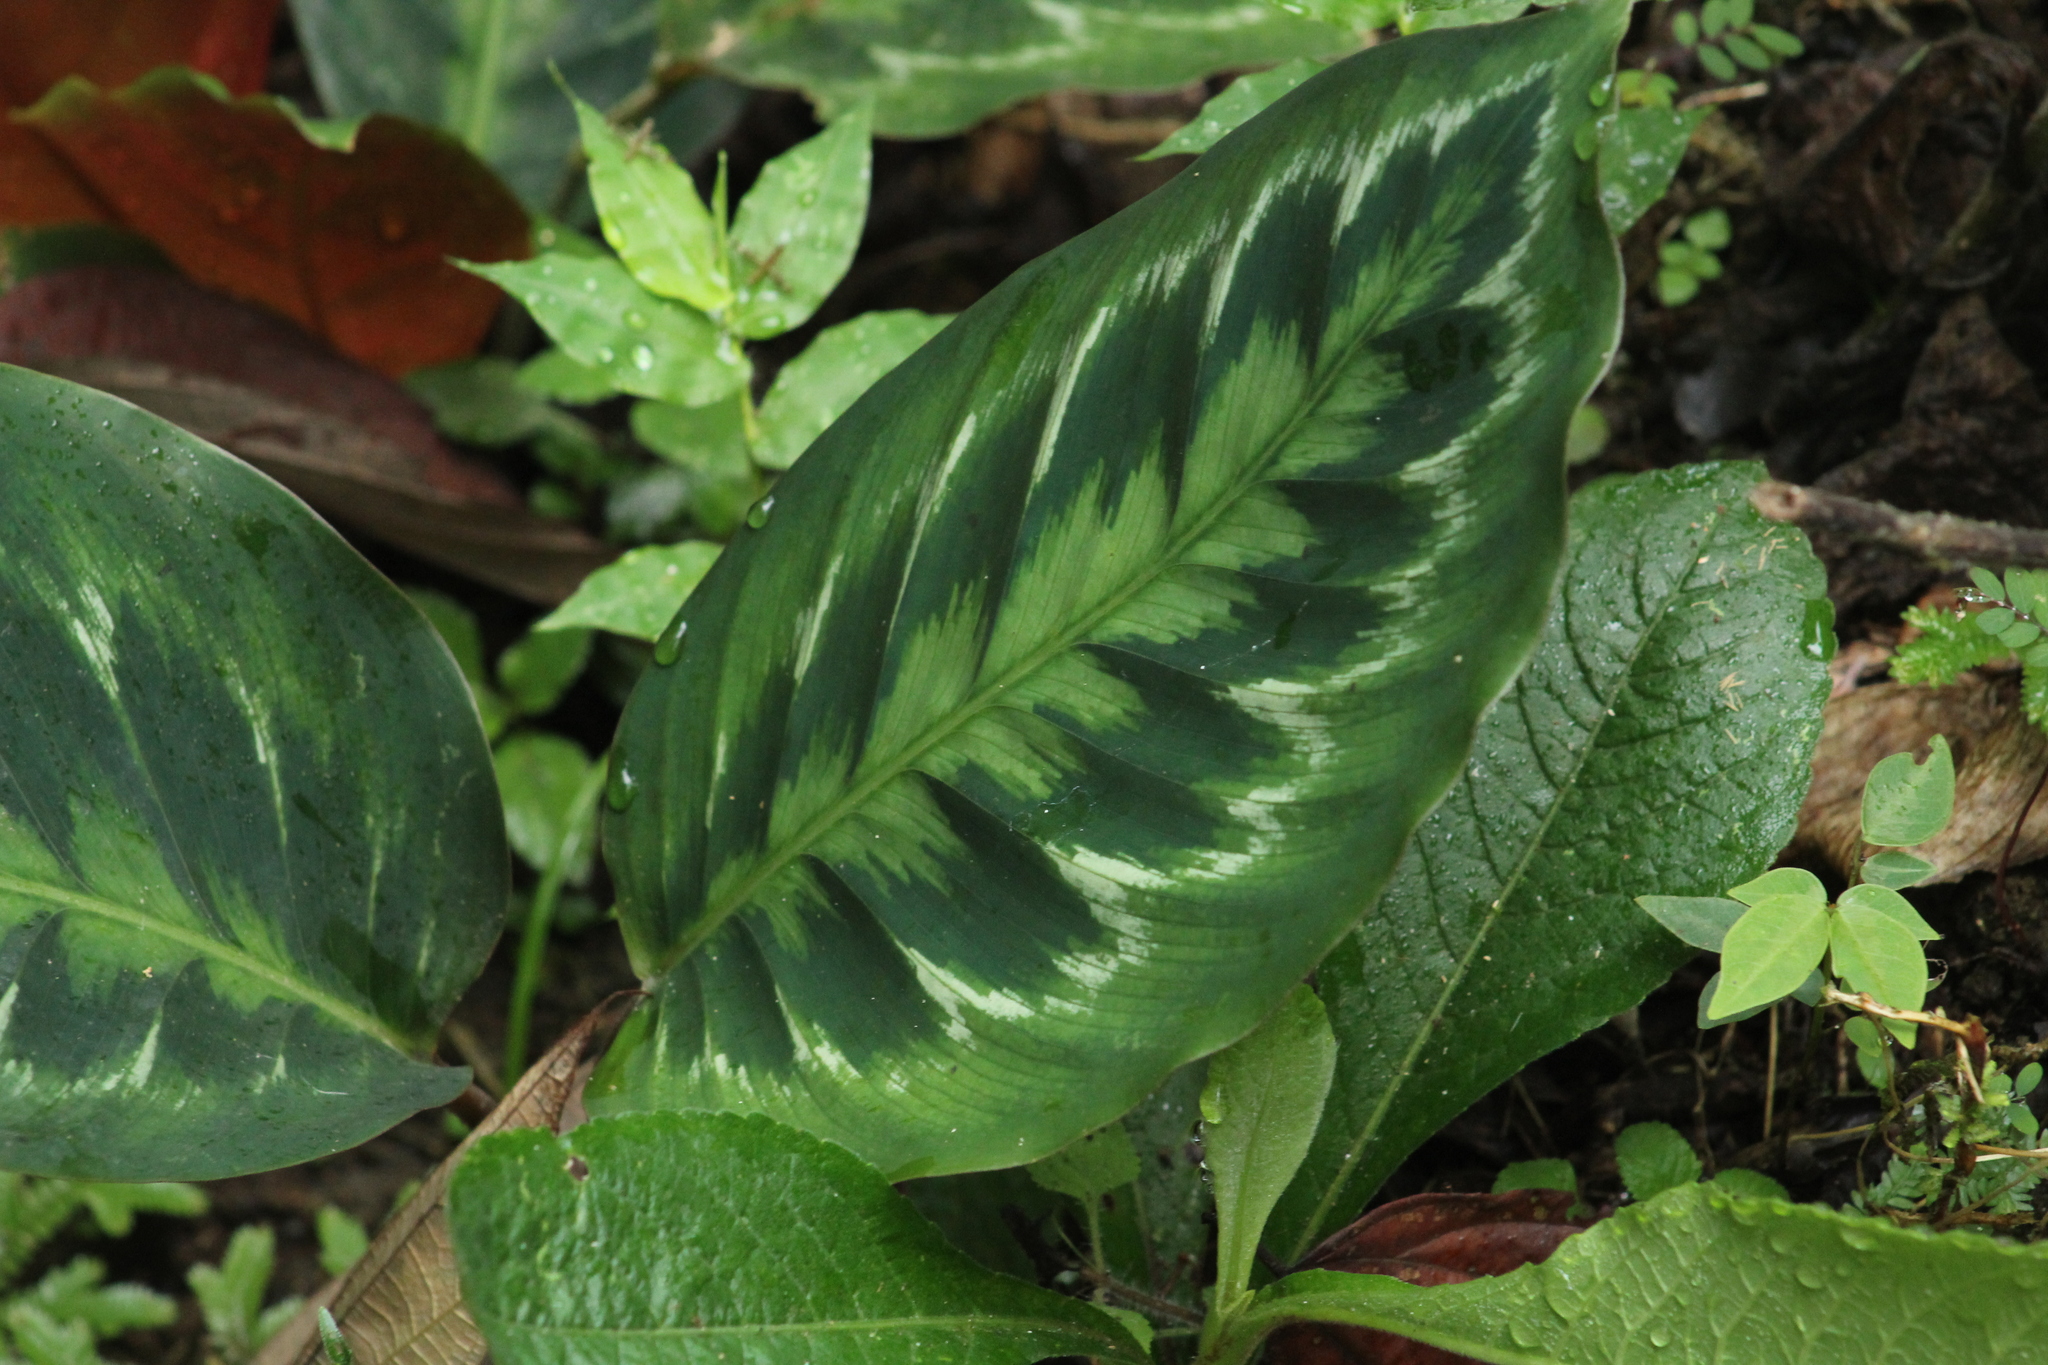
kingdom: Plantae
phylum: Tracheophyta
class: Liliopsida
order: Zingiberales
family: Marantaceae
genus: Goeppertia
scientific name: Goeppertia veitchiana
